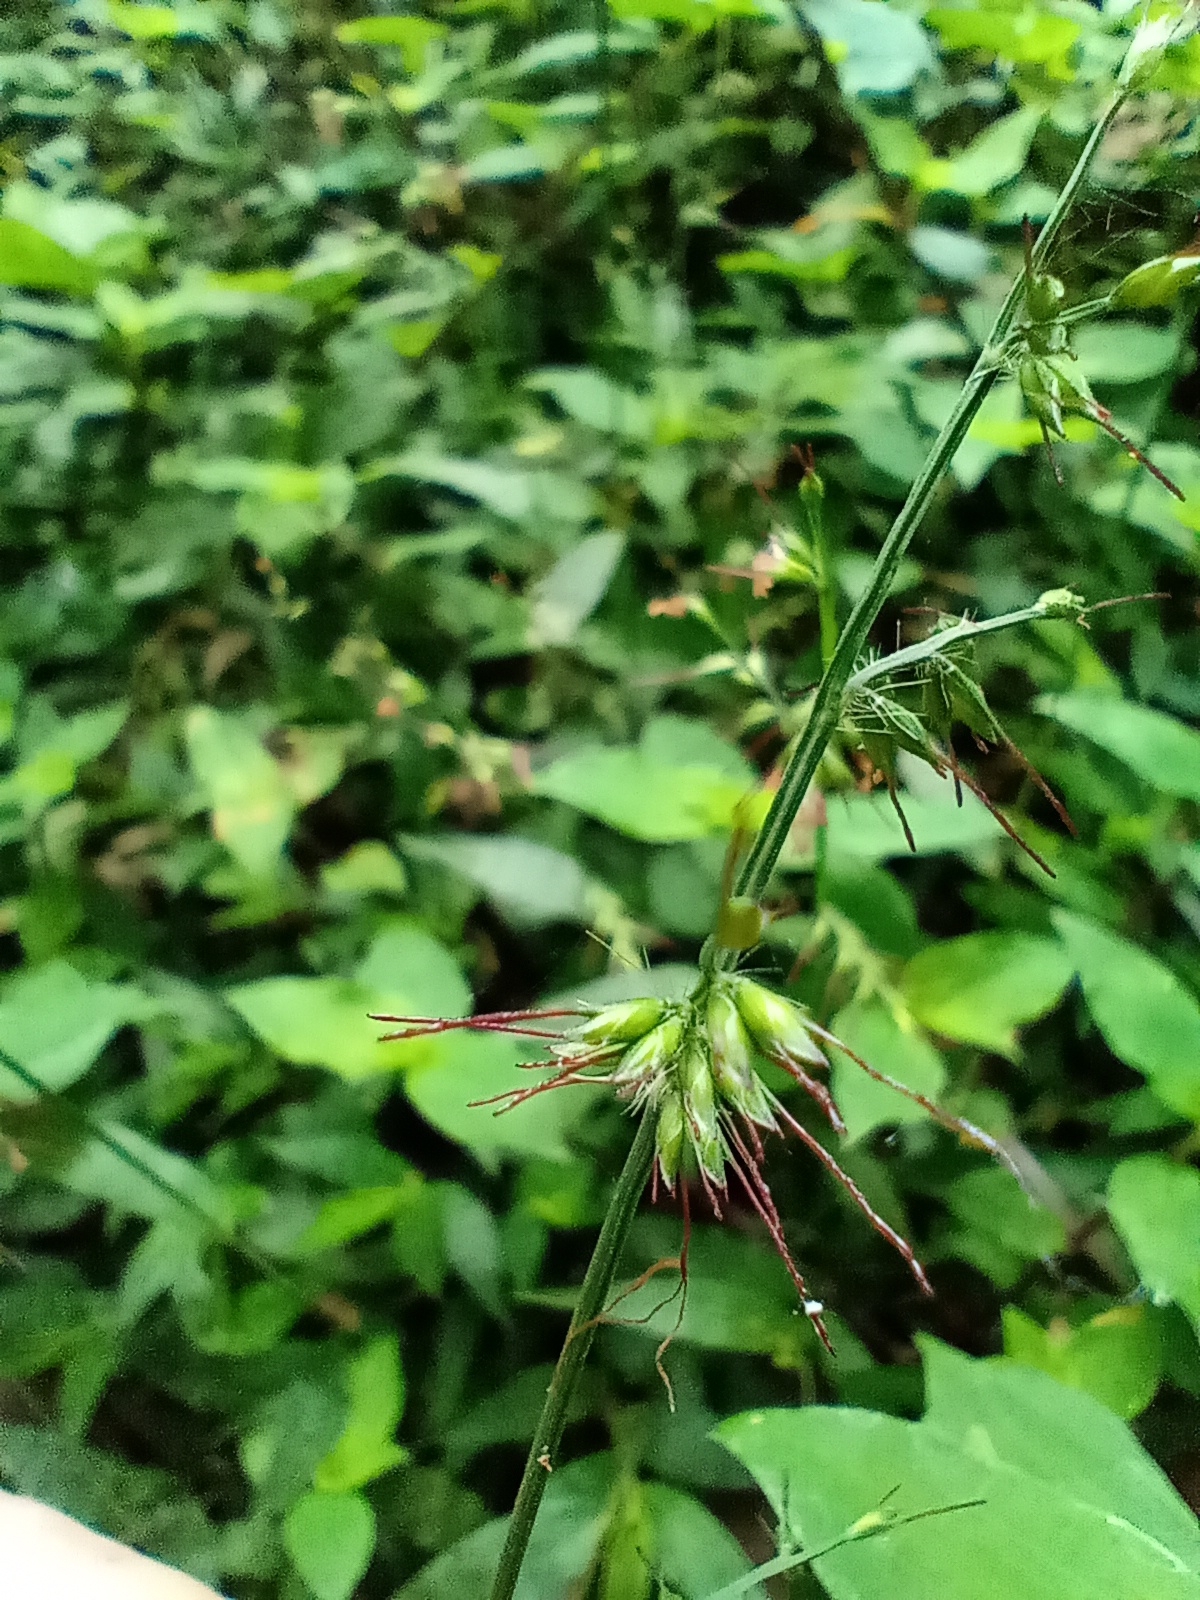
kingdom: Plantae
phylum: Tracheophyta
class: Liliopsida
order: Poales
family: Poaceae
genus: Oplismenus
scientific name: Oplismenus hirtellus
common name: Basketgrass
